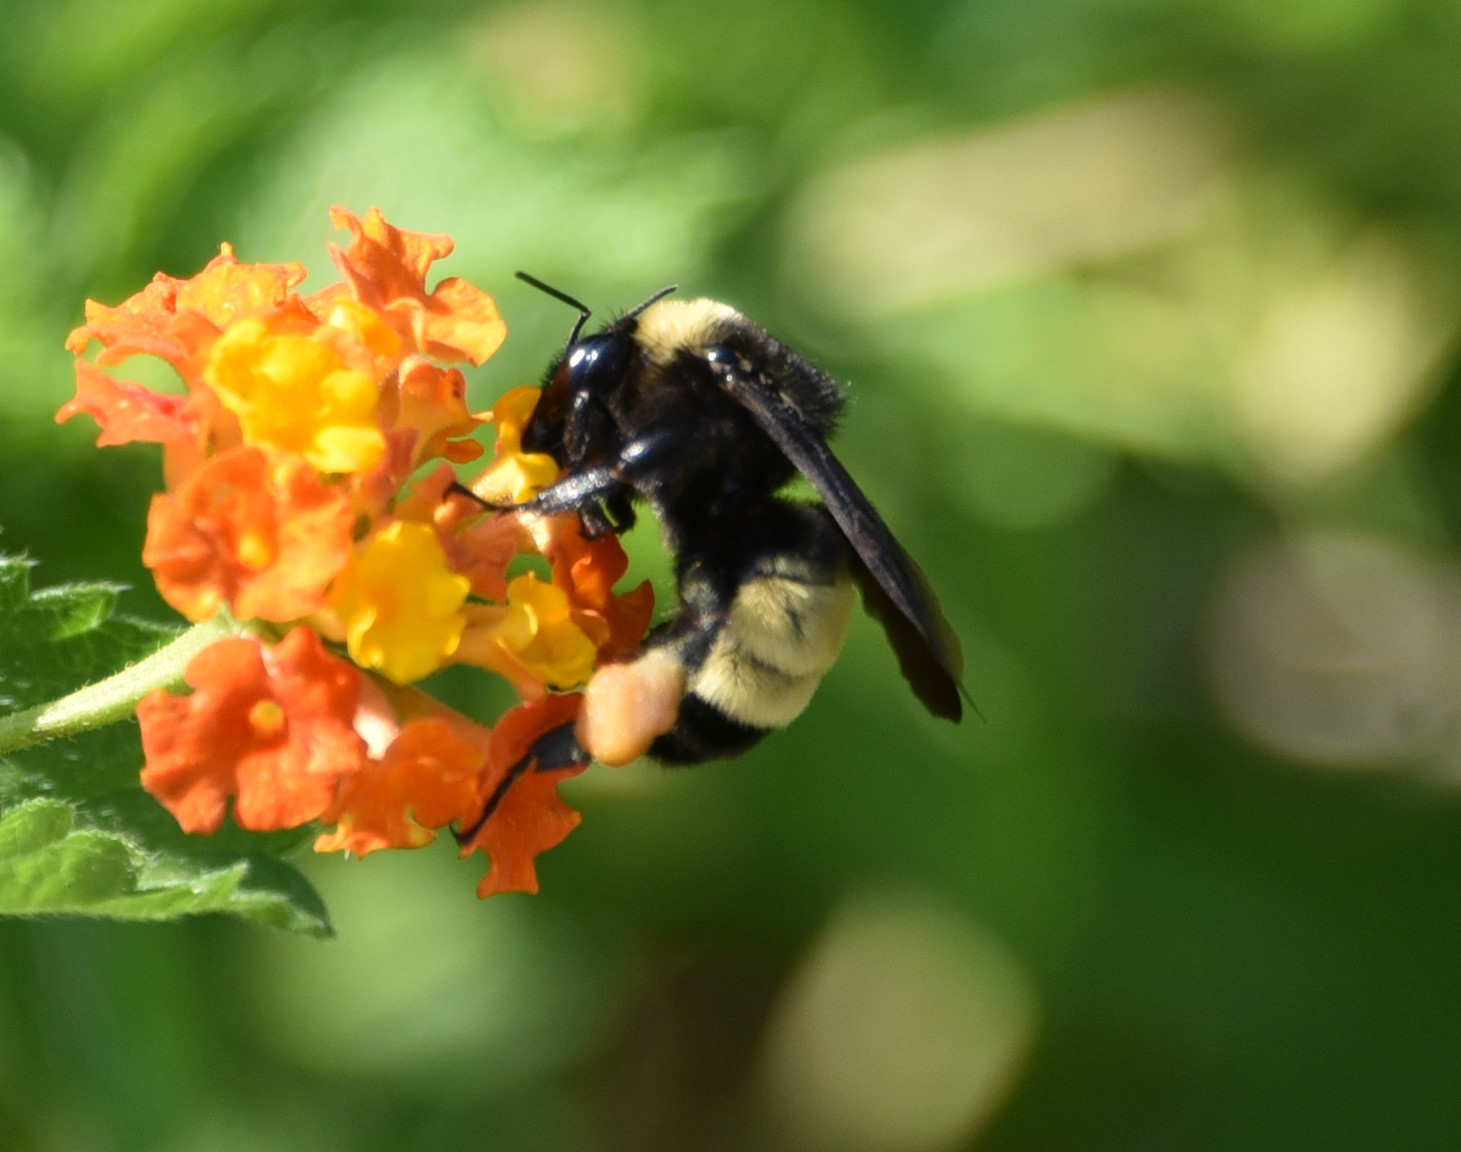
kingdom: Animalia
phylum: Arthropoda
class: Insecta
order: Hymenoptera
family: Apidae
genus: Bombus
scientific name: Bombus pensylvanicus
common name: Bumble bee
